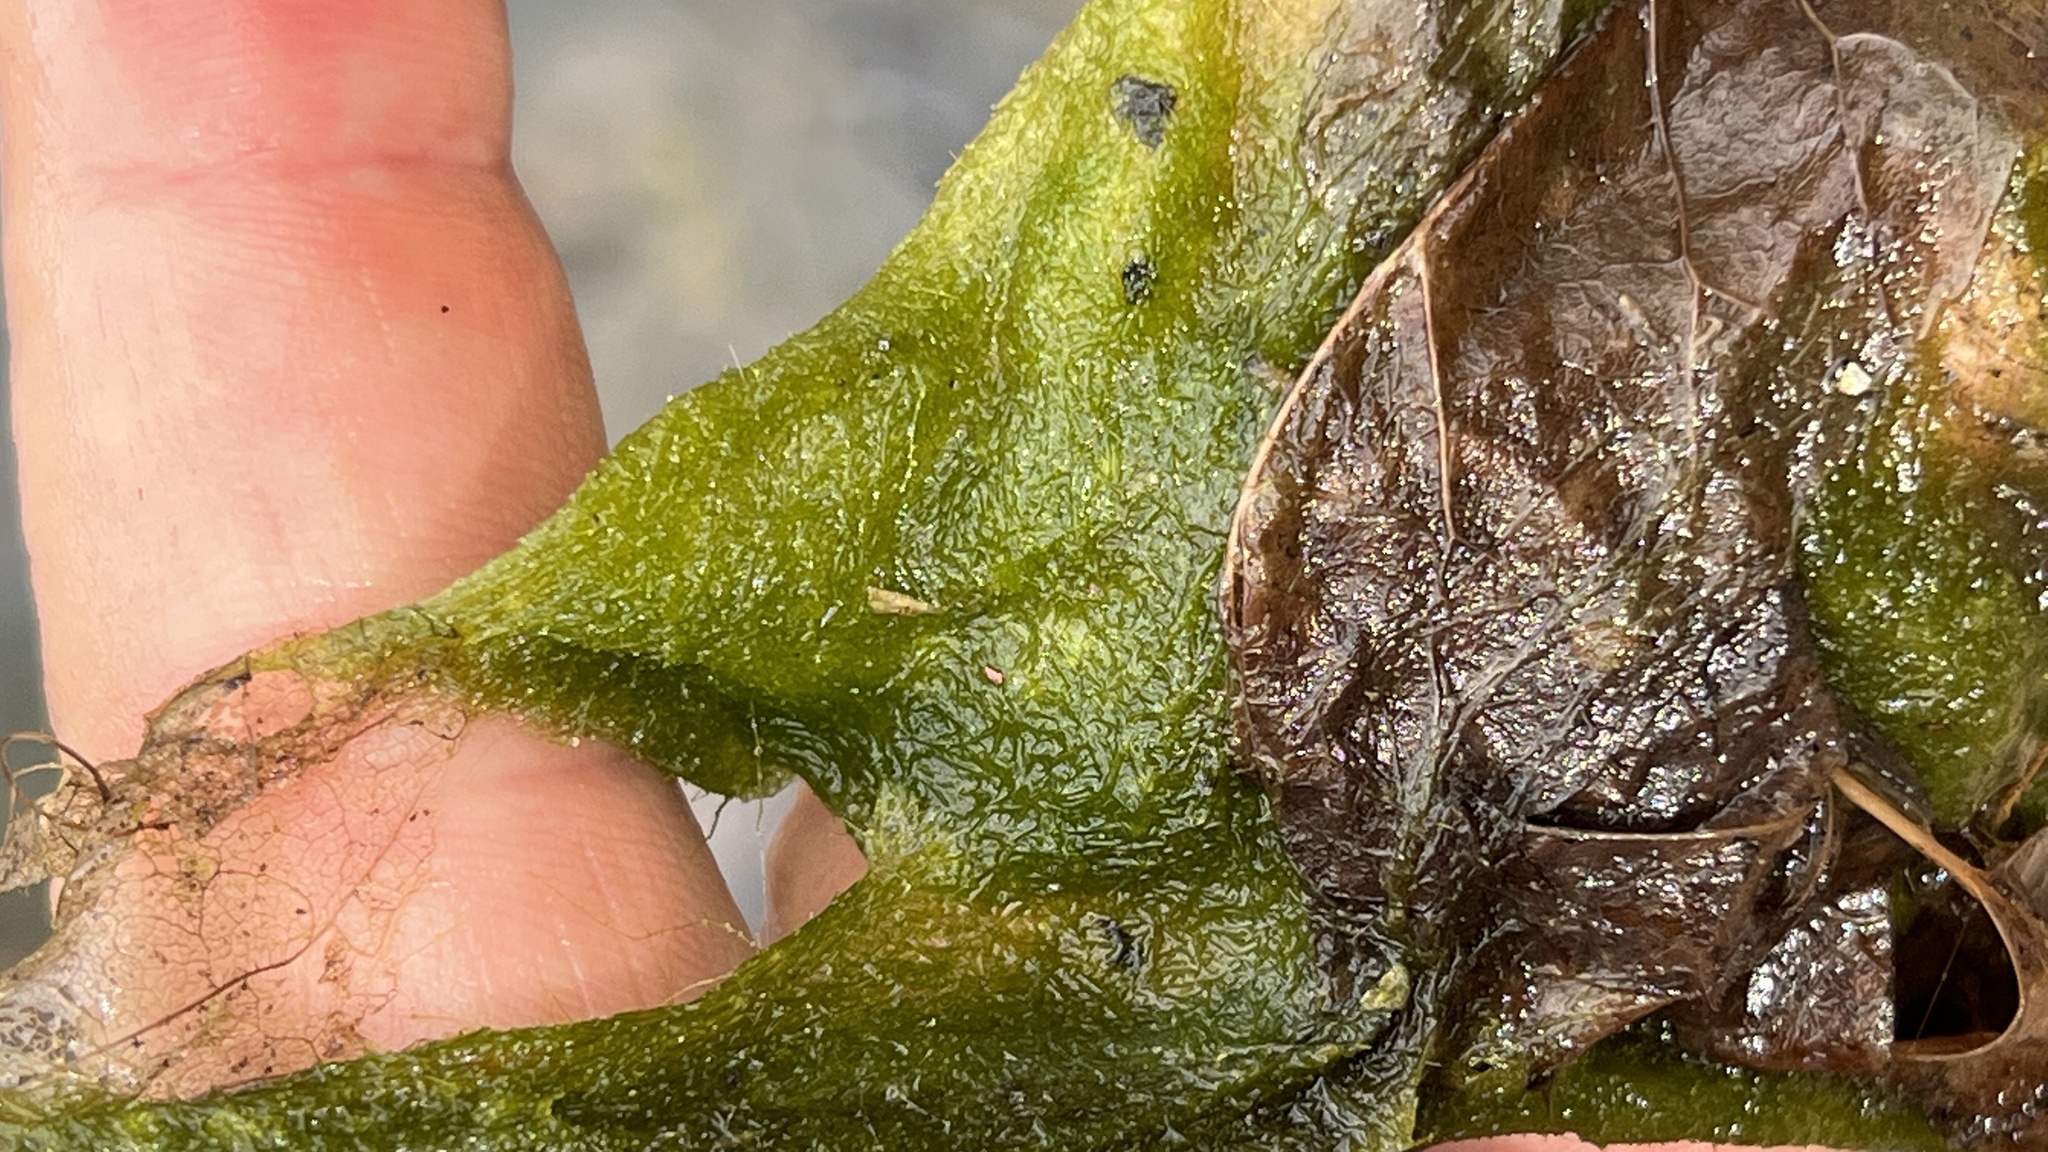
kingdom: Chromista
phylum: Ochrophyta
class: Xanthophyceae
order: Vaucheriales
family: Vaucheriaceae
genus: Vaucheria
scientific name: Vaucheria
